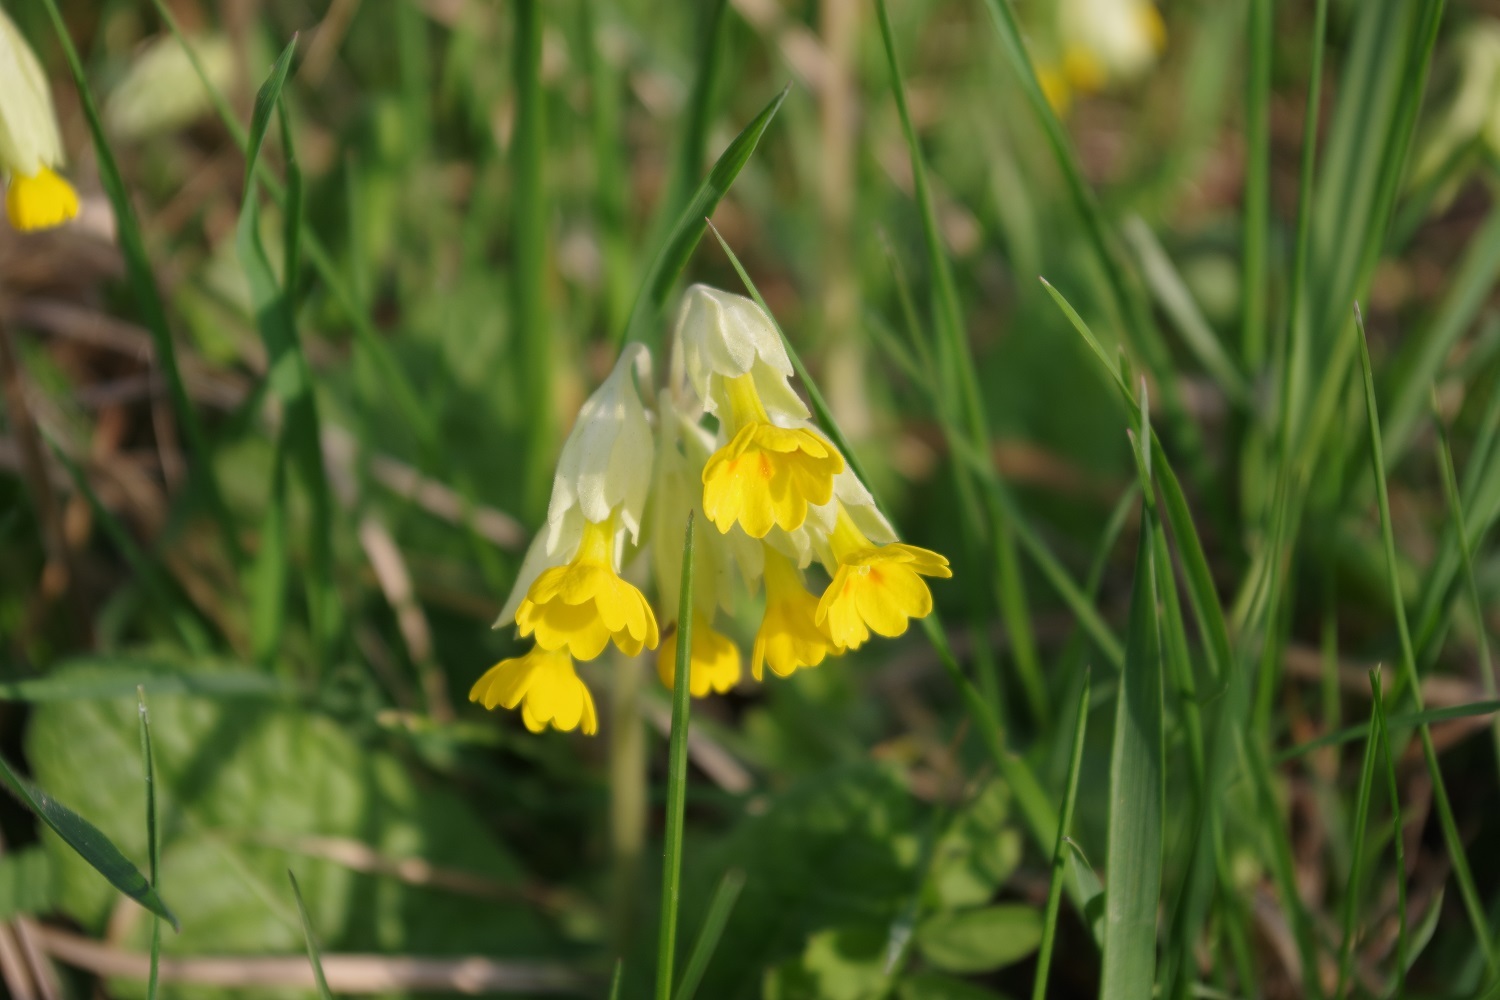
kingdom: Plantae
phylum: Tracheophyta
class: Magnoliopsida
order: Ericales
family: Primulaceae
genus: Primula
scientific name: Primula veris
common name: Cowslip
